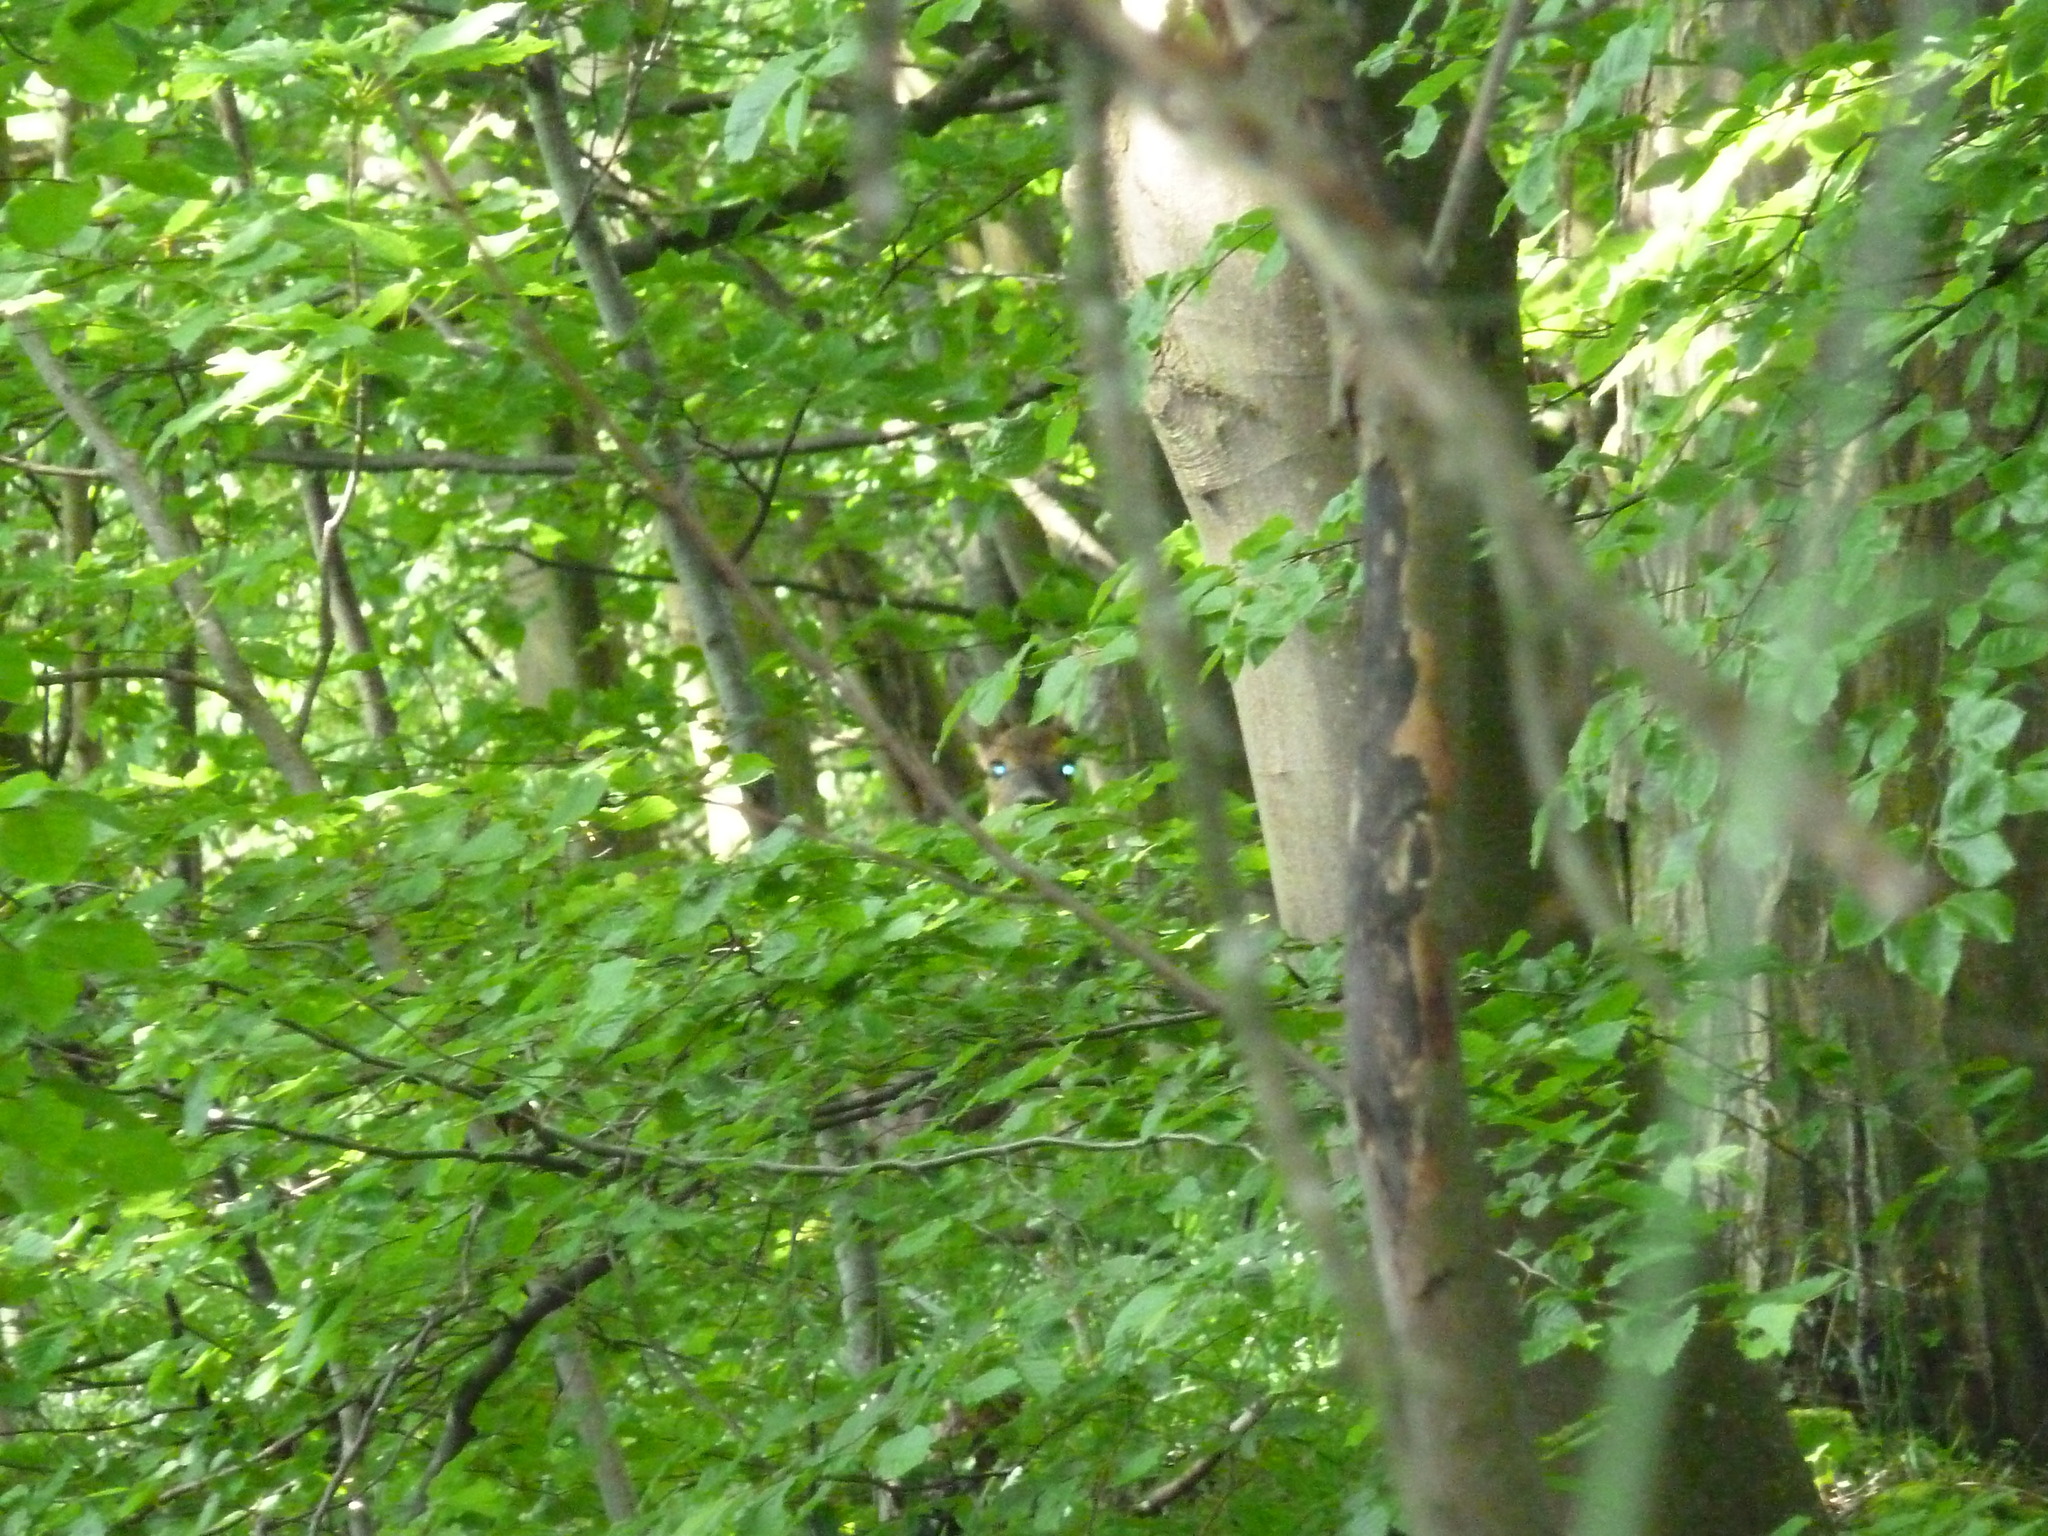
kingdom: Animalia
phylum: Chordata
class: Mammalia
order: Artiodactyla
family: Cervidae
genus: Capreolus
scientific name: Capreolus capreolus
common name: Western roe deer
